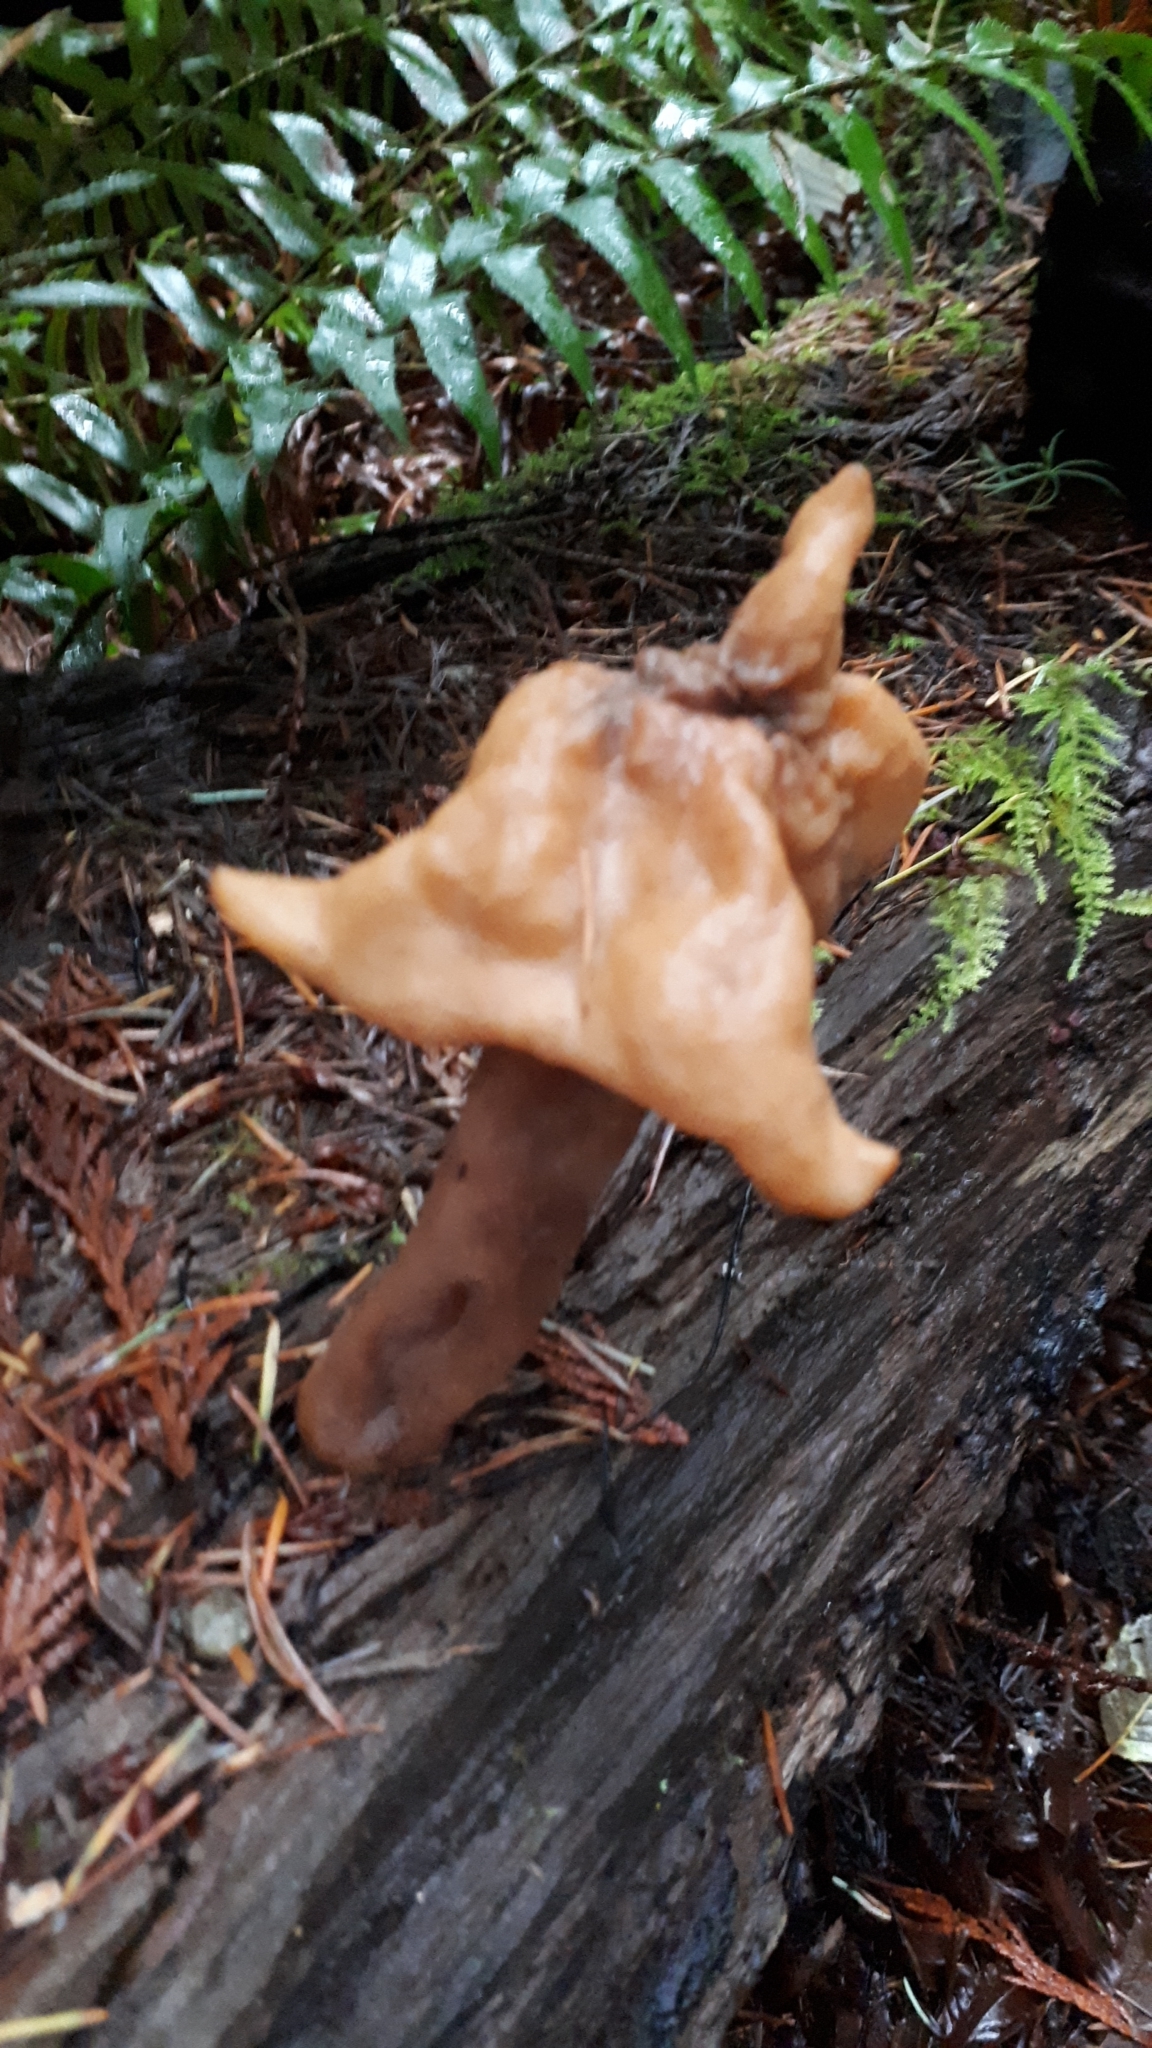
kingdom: Fungi
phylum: Ascomycota
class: Pezizomycetes
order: Pezizales
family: Discinaceae
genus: Gyromitra
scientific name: Gyromitra infula
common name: Pouched false morel
